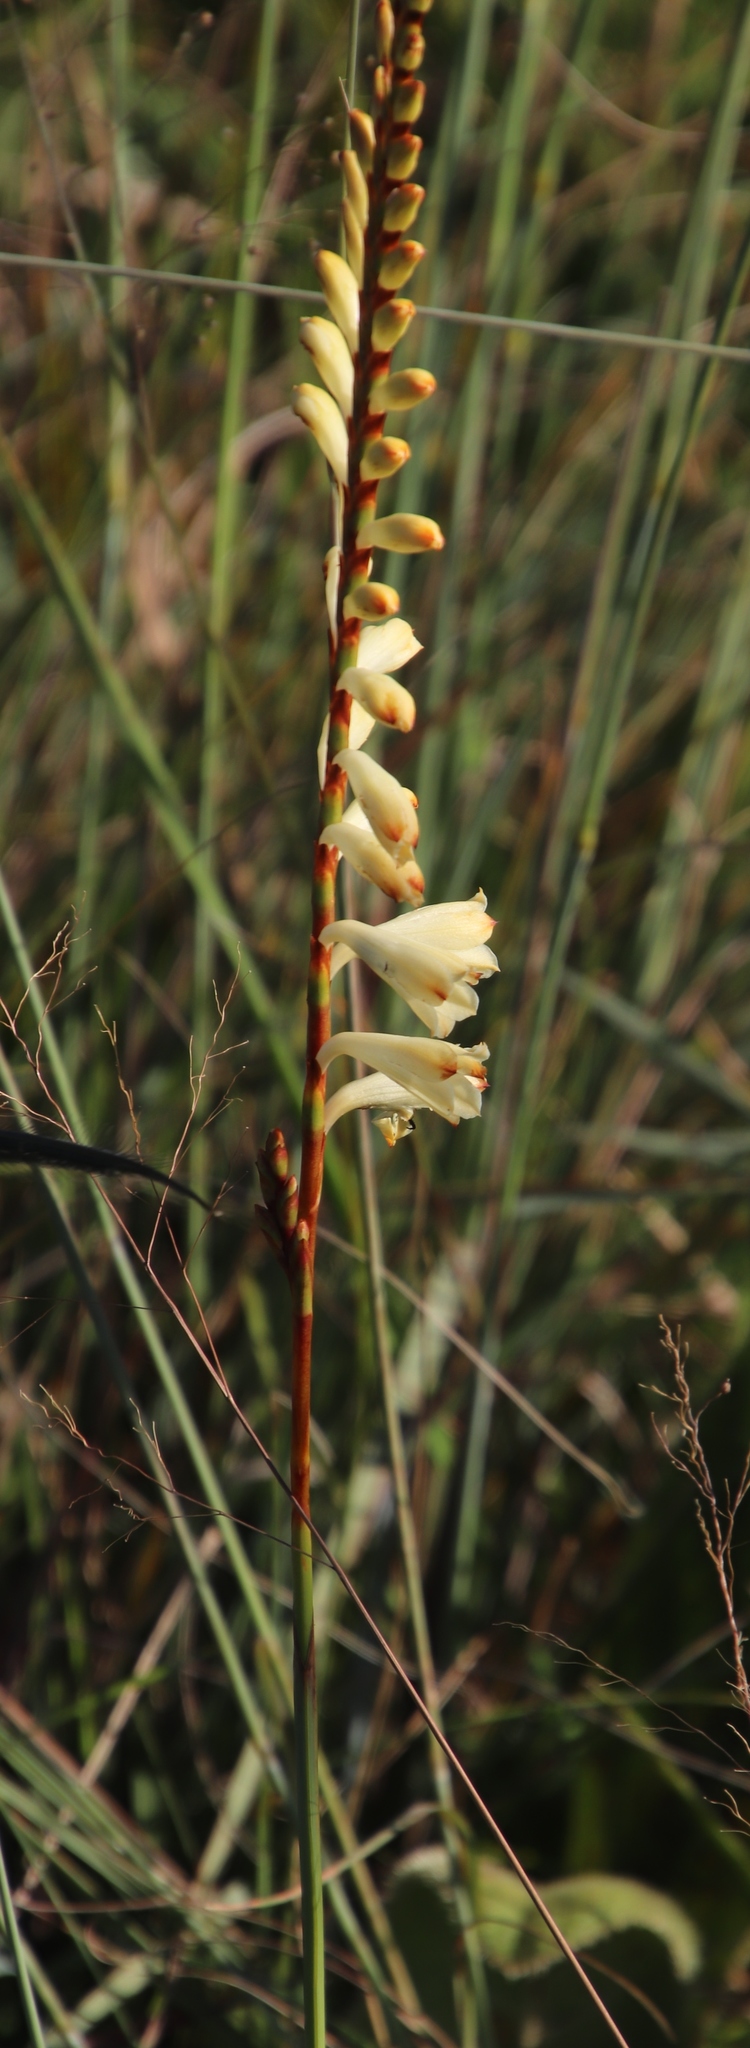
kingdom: Plantae
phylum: Tracheophyta
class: Liliopsida
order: Asparagales
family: Iridaceae
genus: Watsonia
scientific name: Watsonia watsonioides
